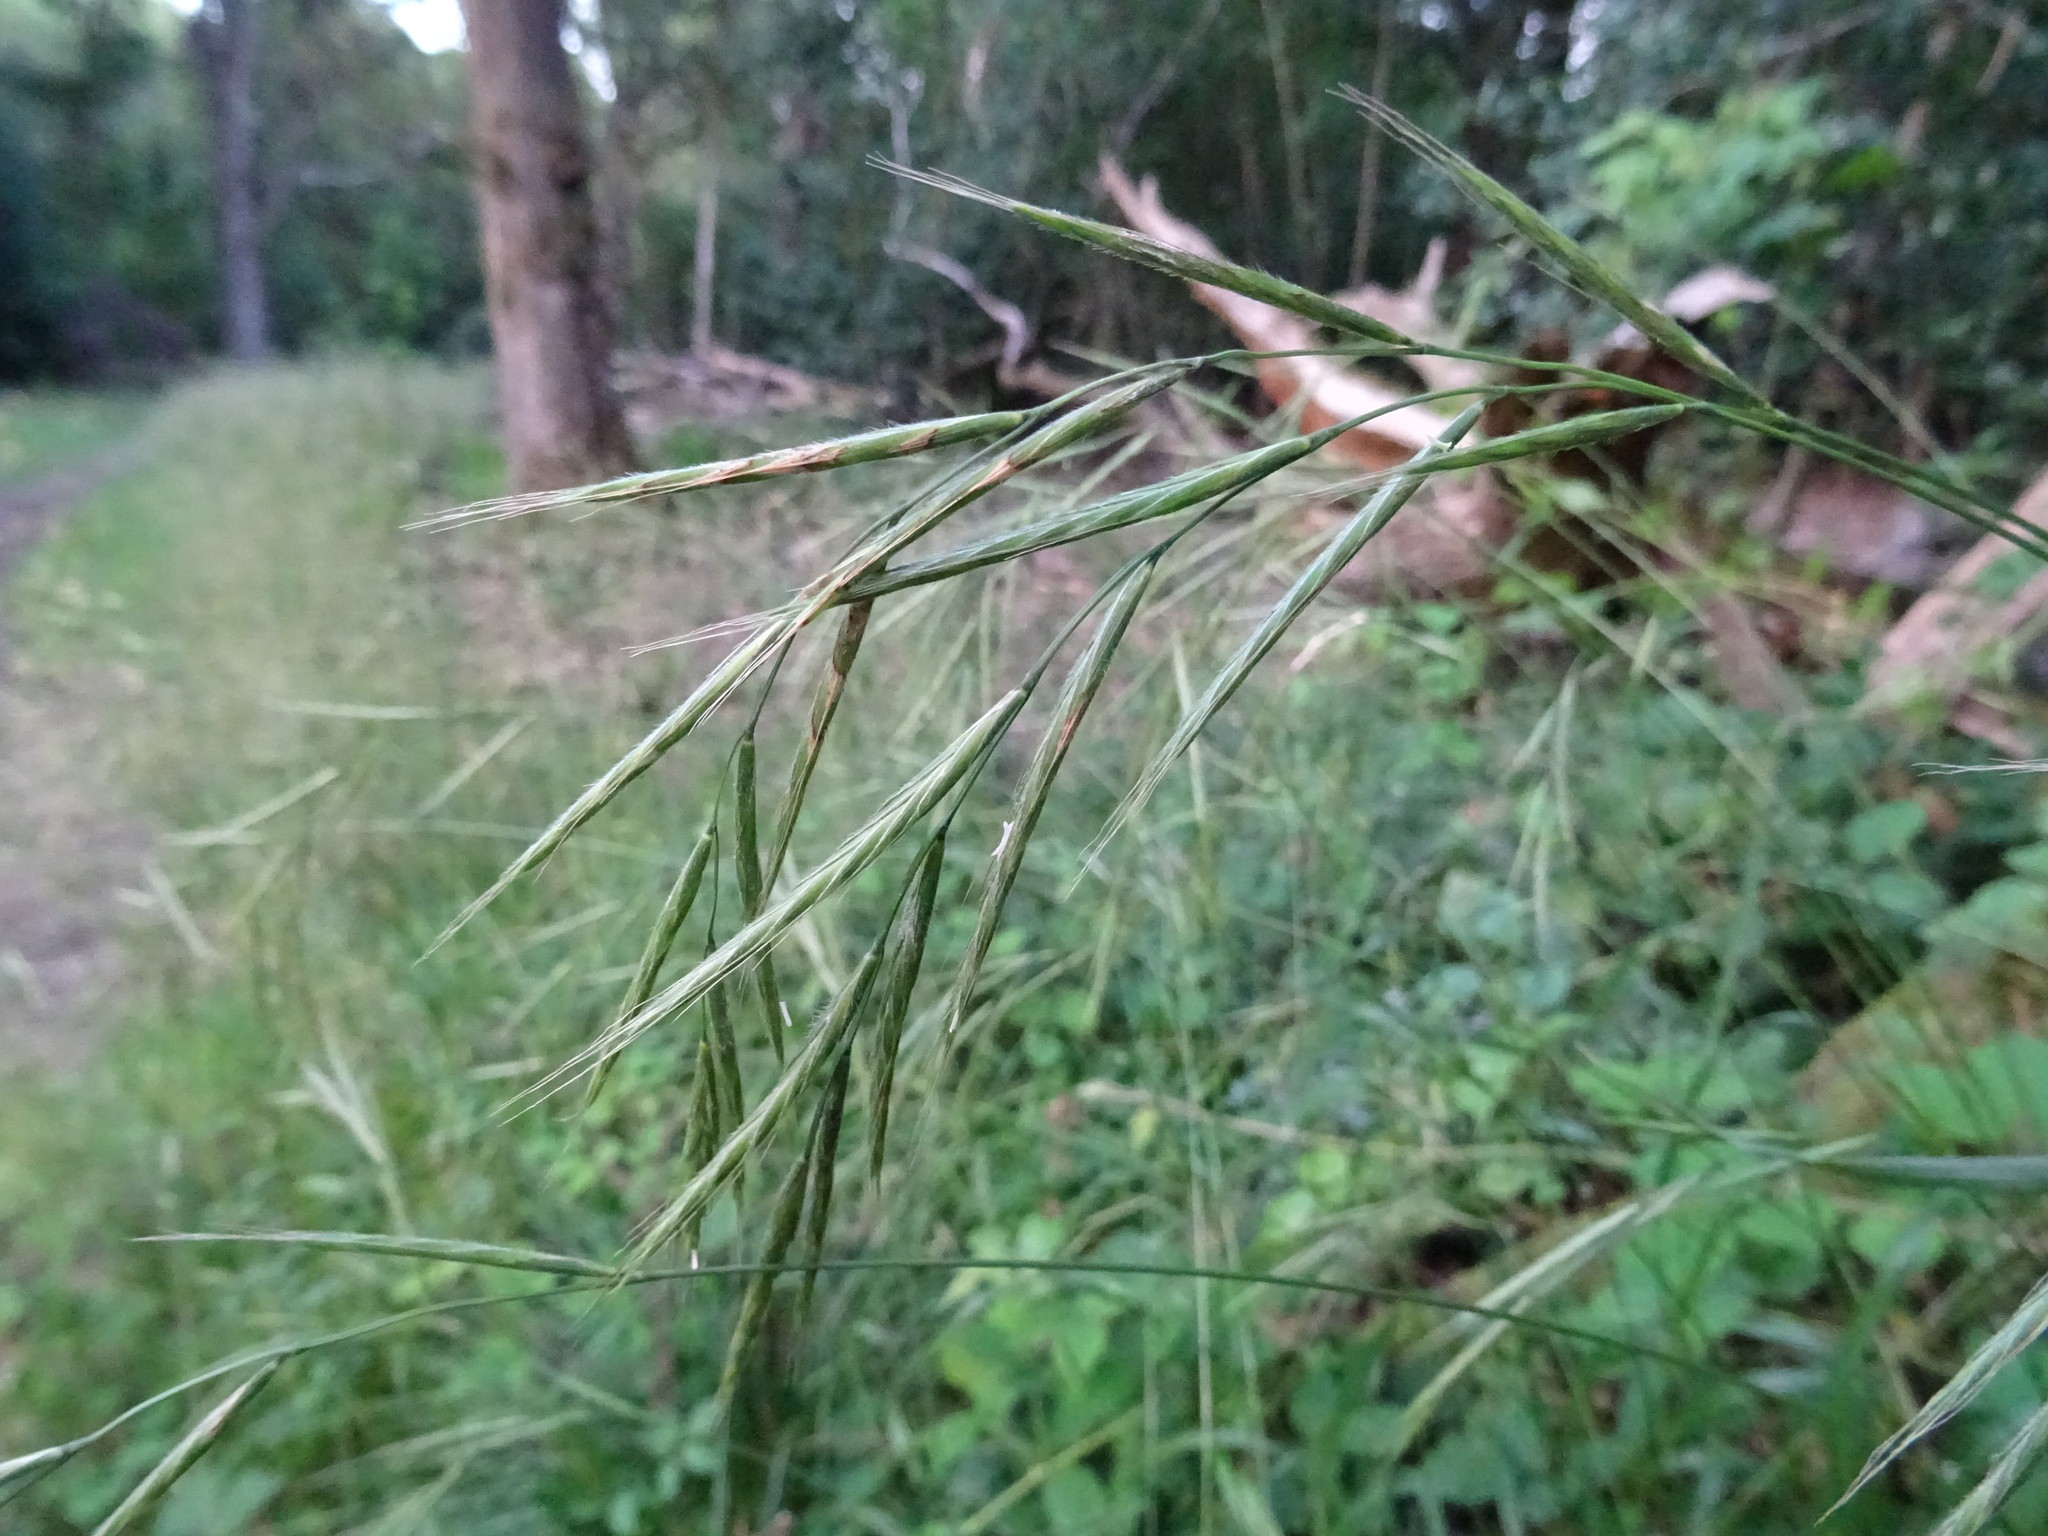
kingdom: Plantae
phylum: Tracheophyta
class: Liliopsida
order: Poales
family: Poaceae
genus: Brachypodium
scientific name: Brachypodium sylvaticum
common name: False-brome
